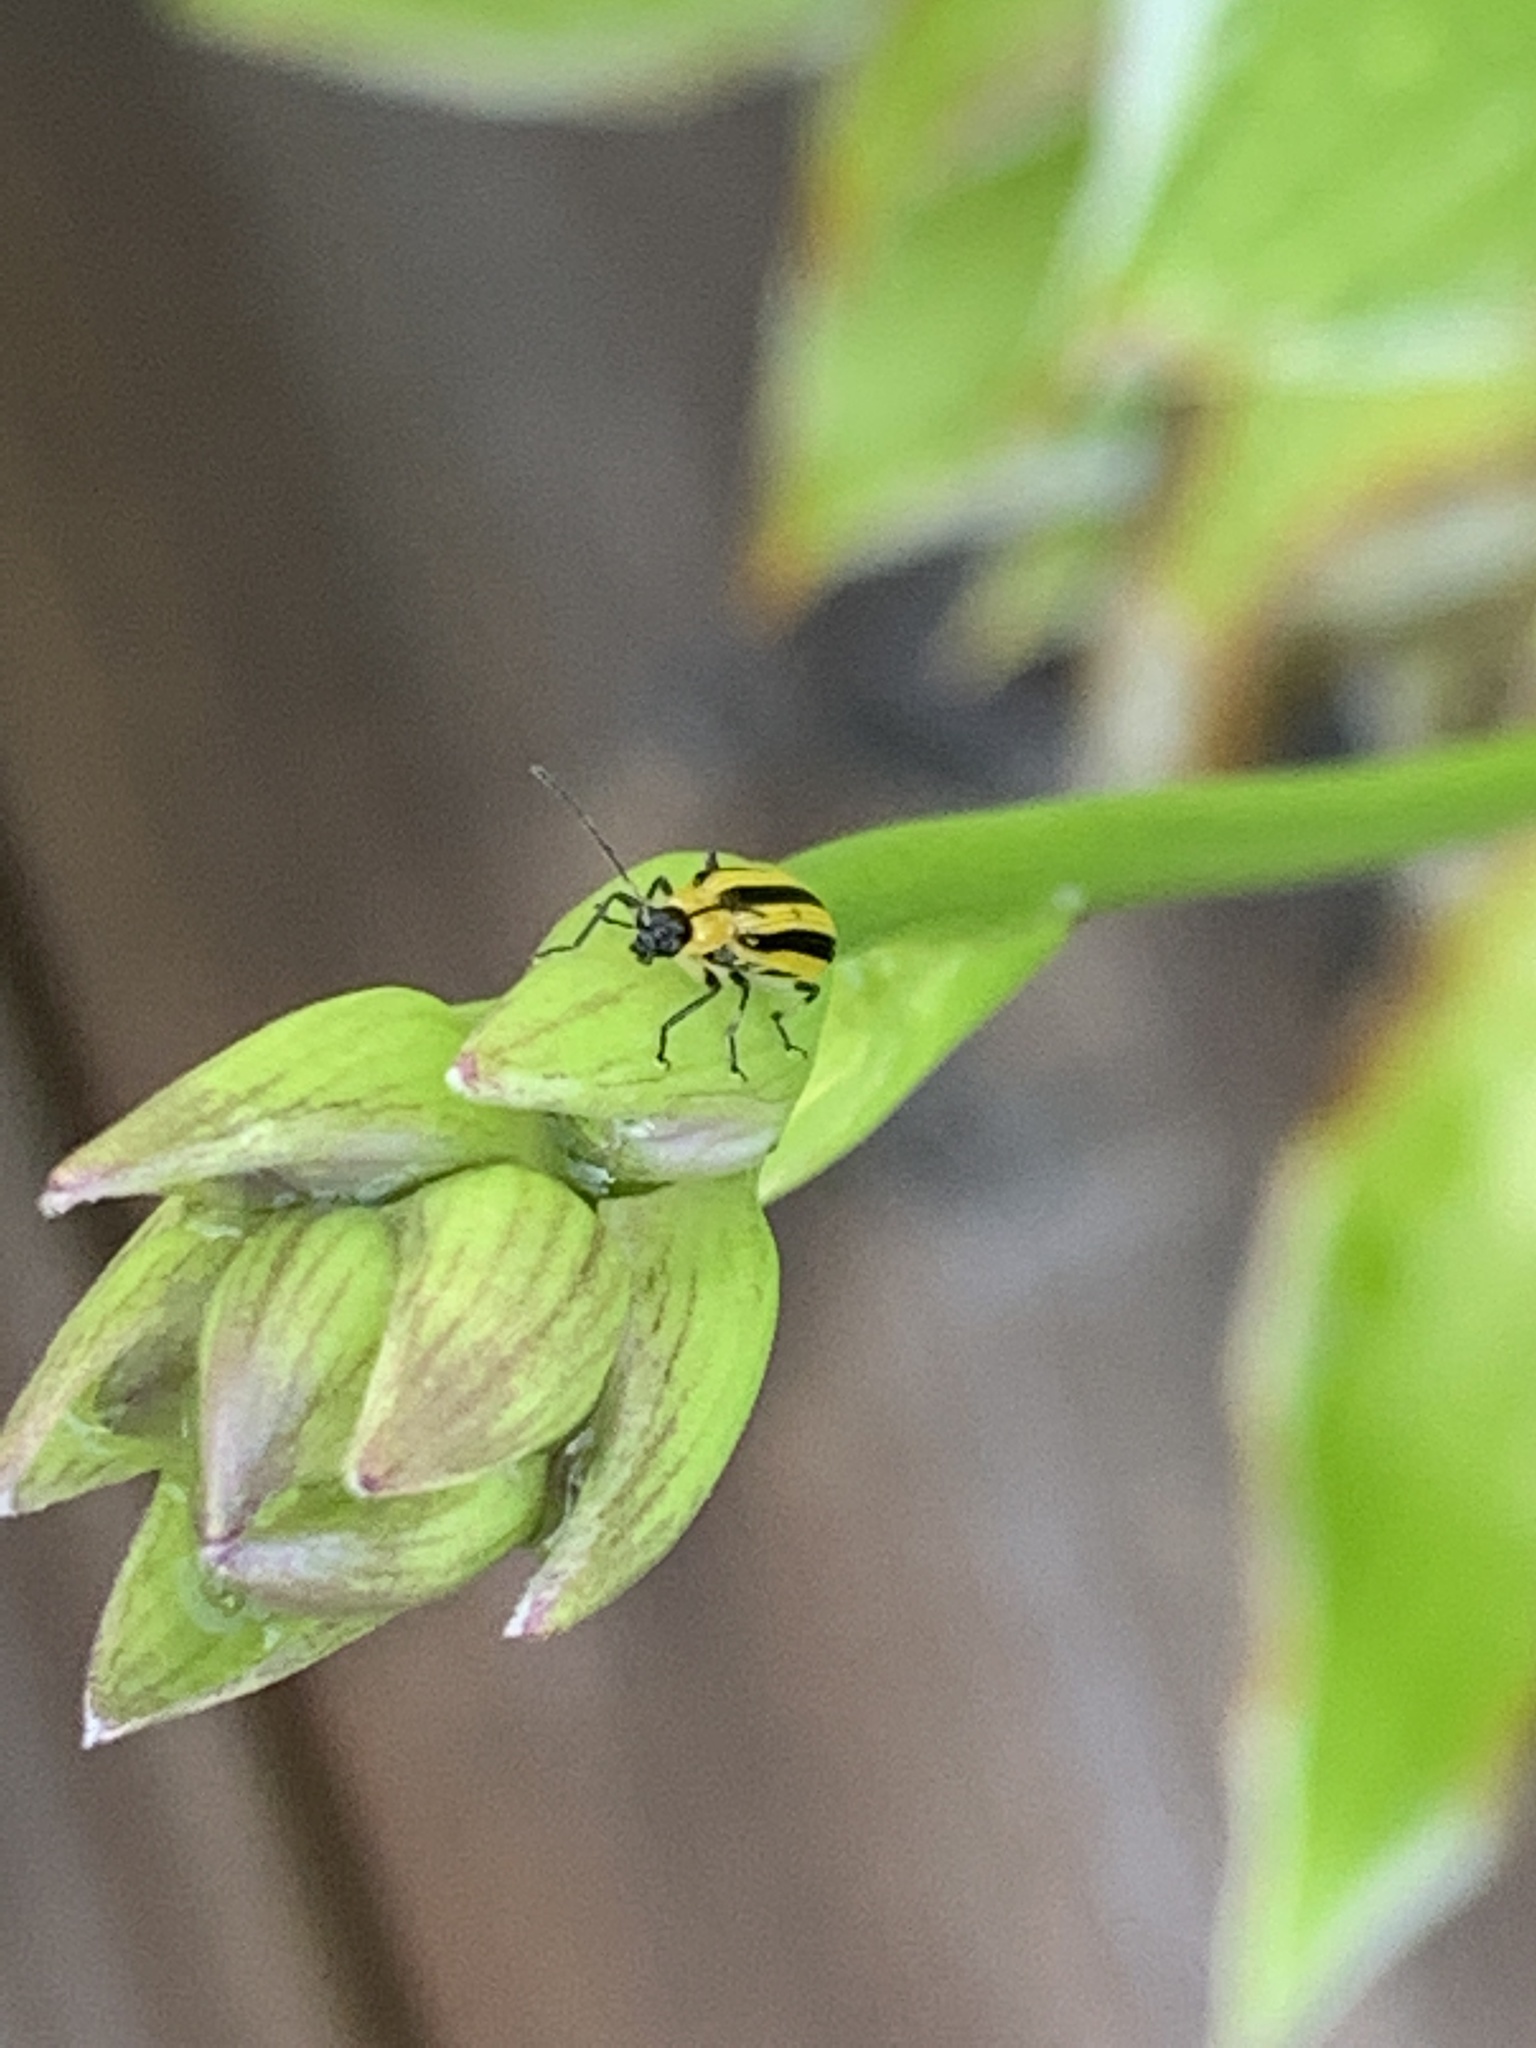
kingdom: Animalia
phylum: Arthropoda
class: Insecta
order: Coleoptera
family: Chrysomelidae
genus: Acalymma
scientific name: Acalymma vittatum
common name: Striped cucumber beetle
